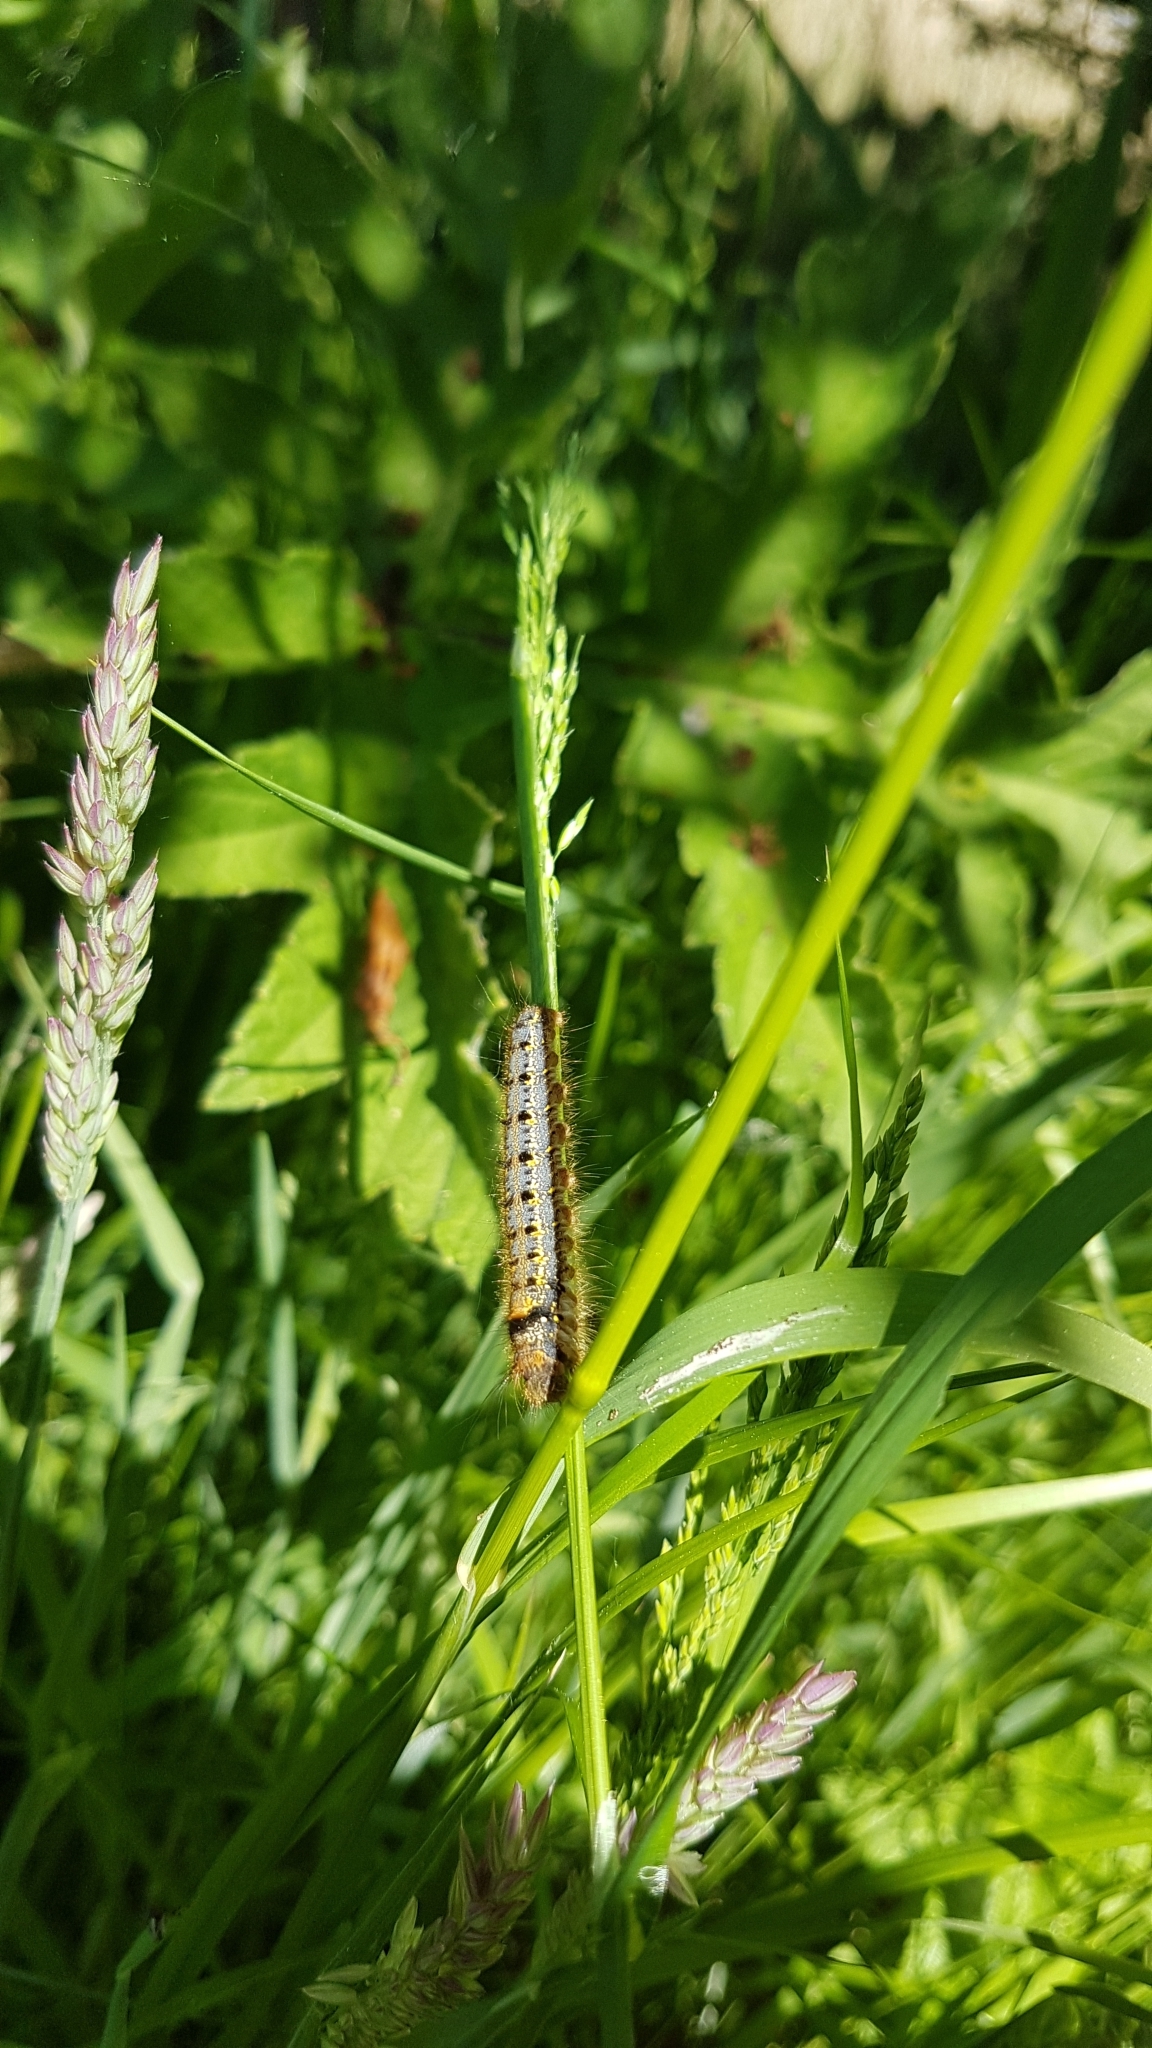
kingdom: Animalia
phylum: Arthropoda
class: Insecta
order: Lepidoptera
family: Lasiocampidae
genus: Euthrix
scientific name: Euthrix potatoria
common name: Drinker
